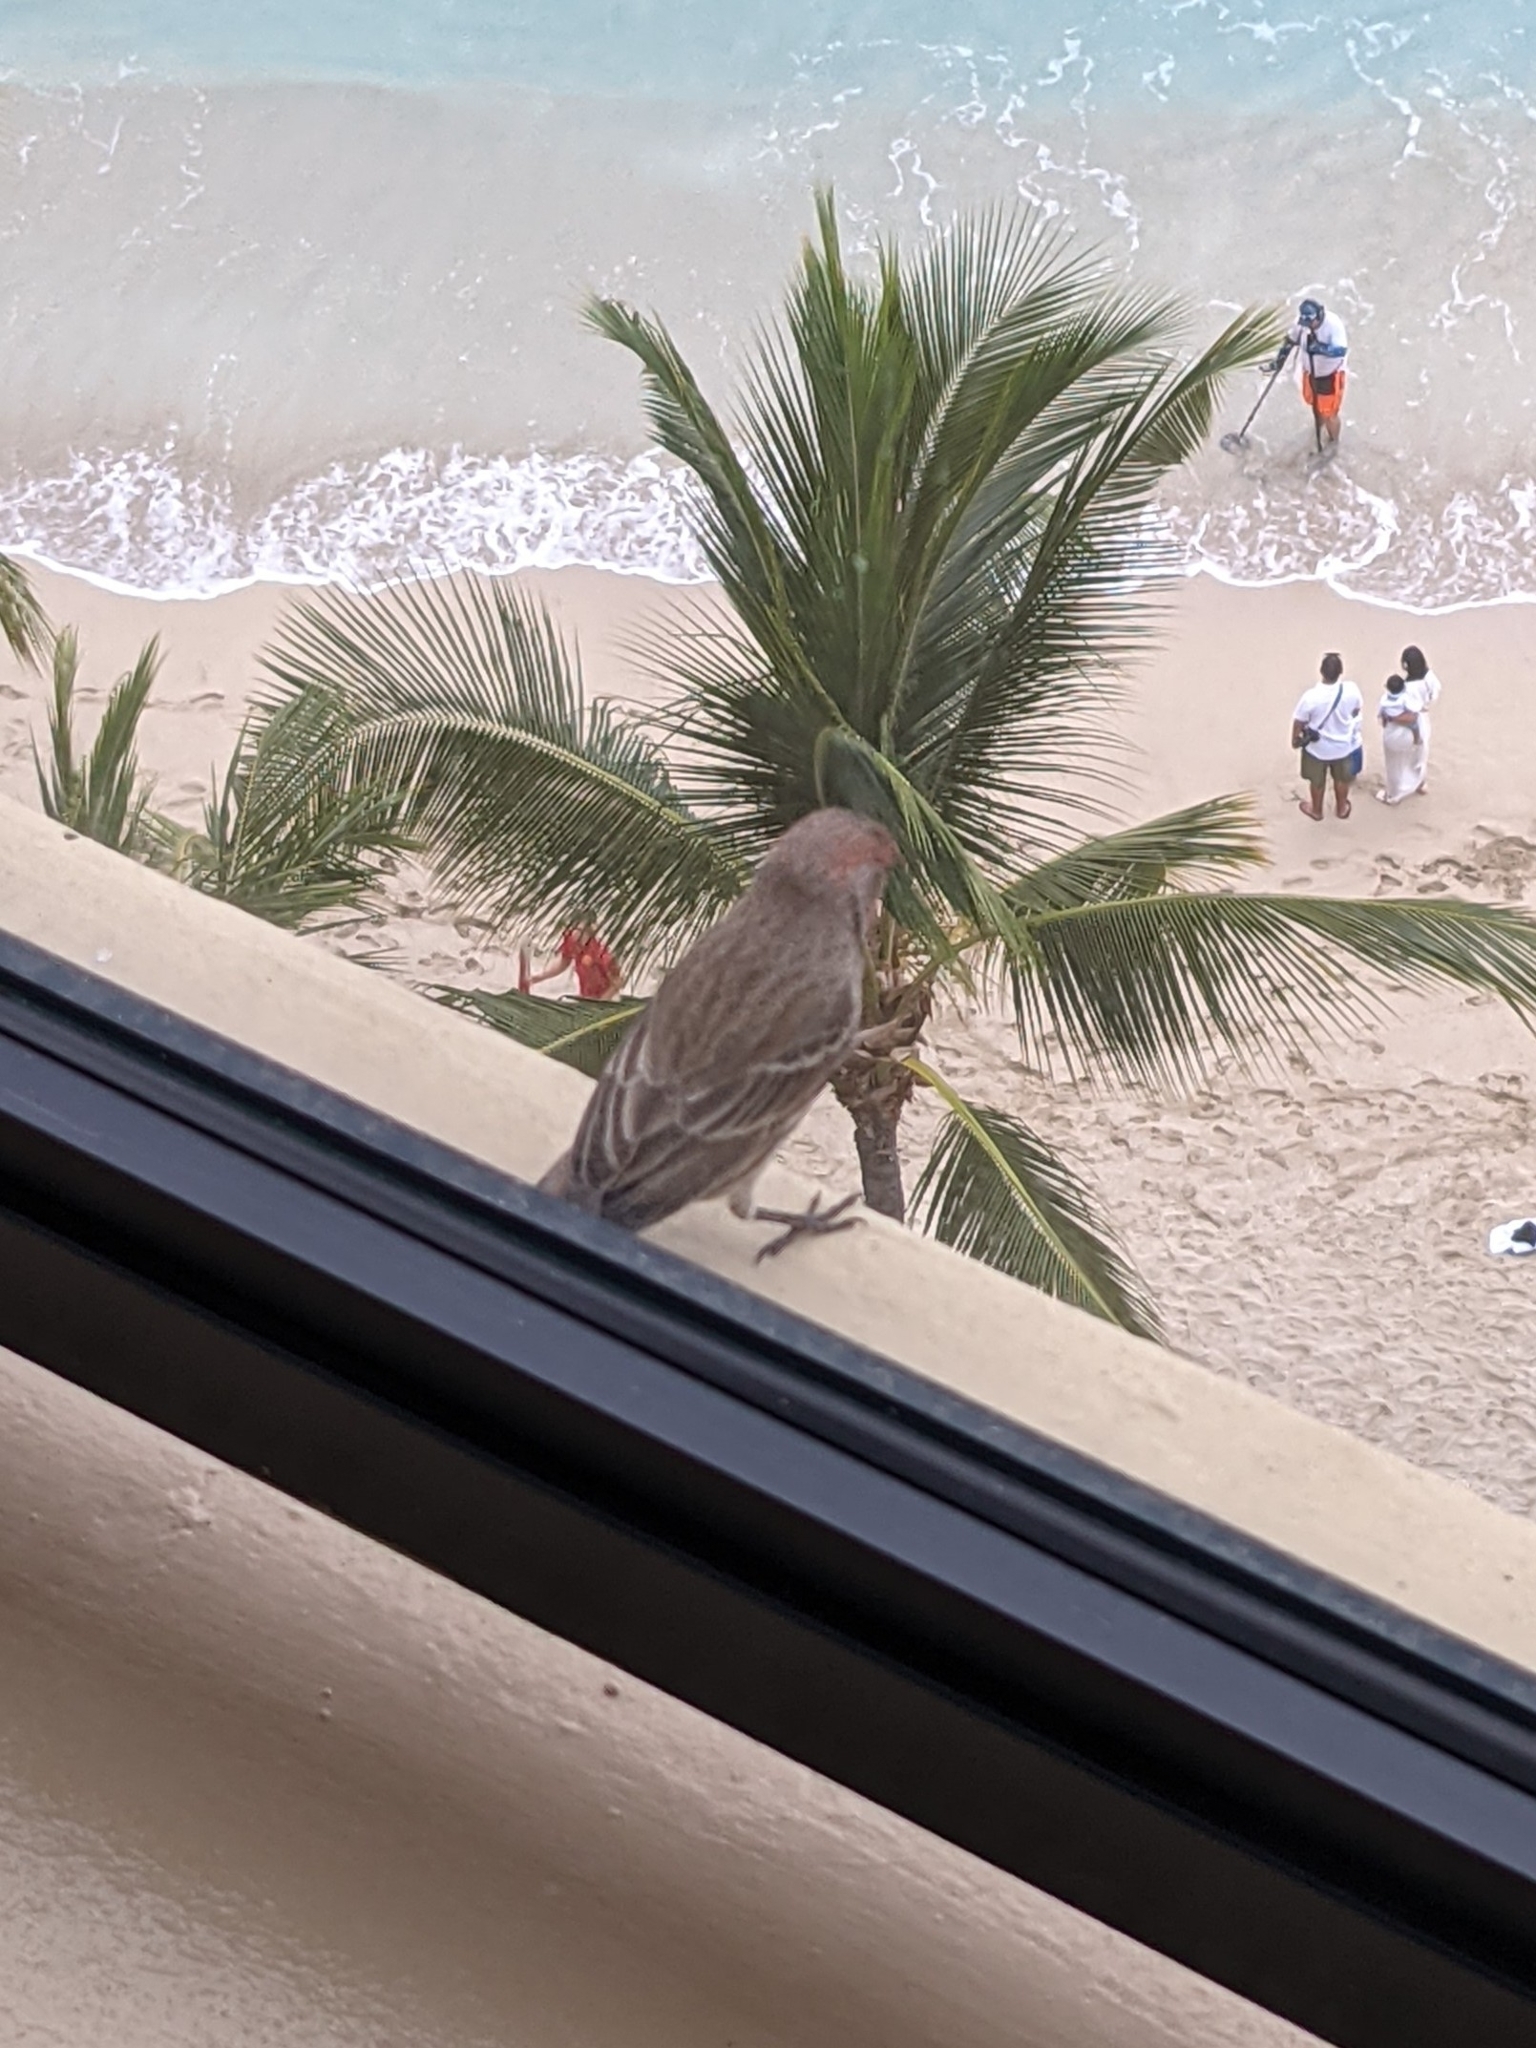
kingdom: Animalia
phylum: Chordata
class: Aves
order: Passeriformes
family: Fringillidae
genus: Haemorhous
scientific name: Haemorhous mexicanus
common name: House finch
